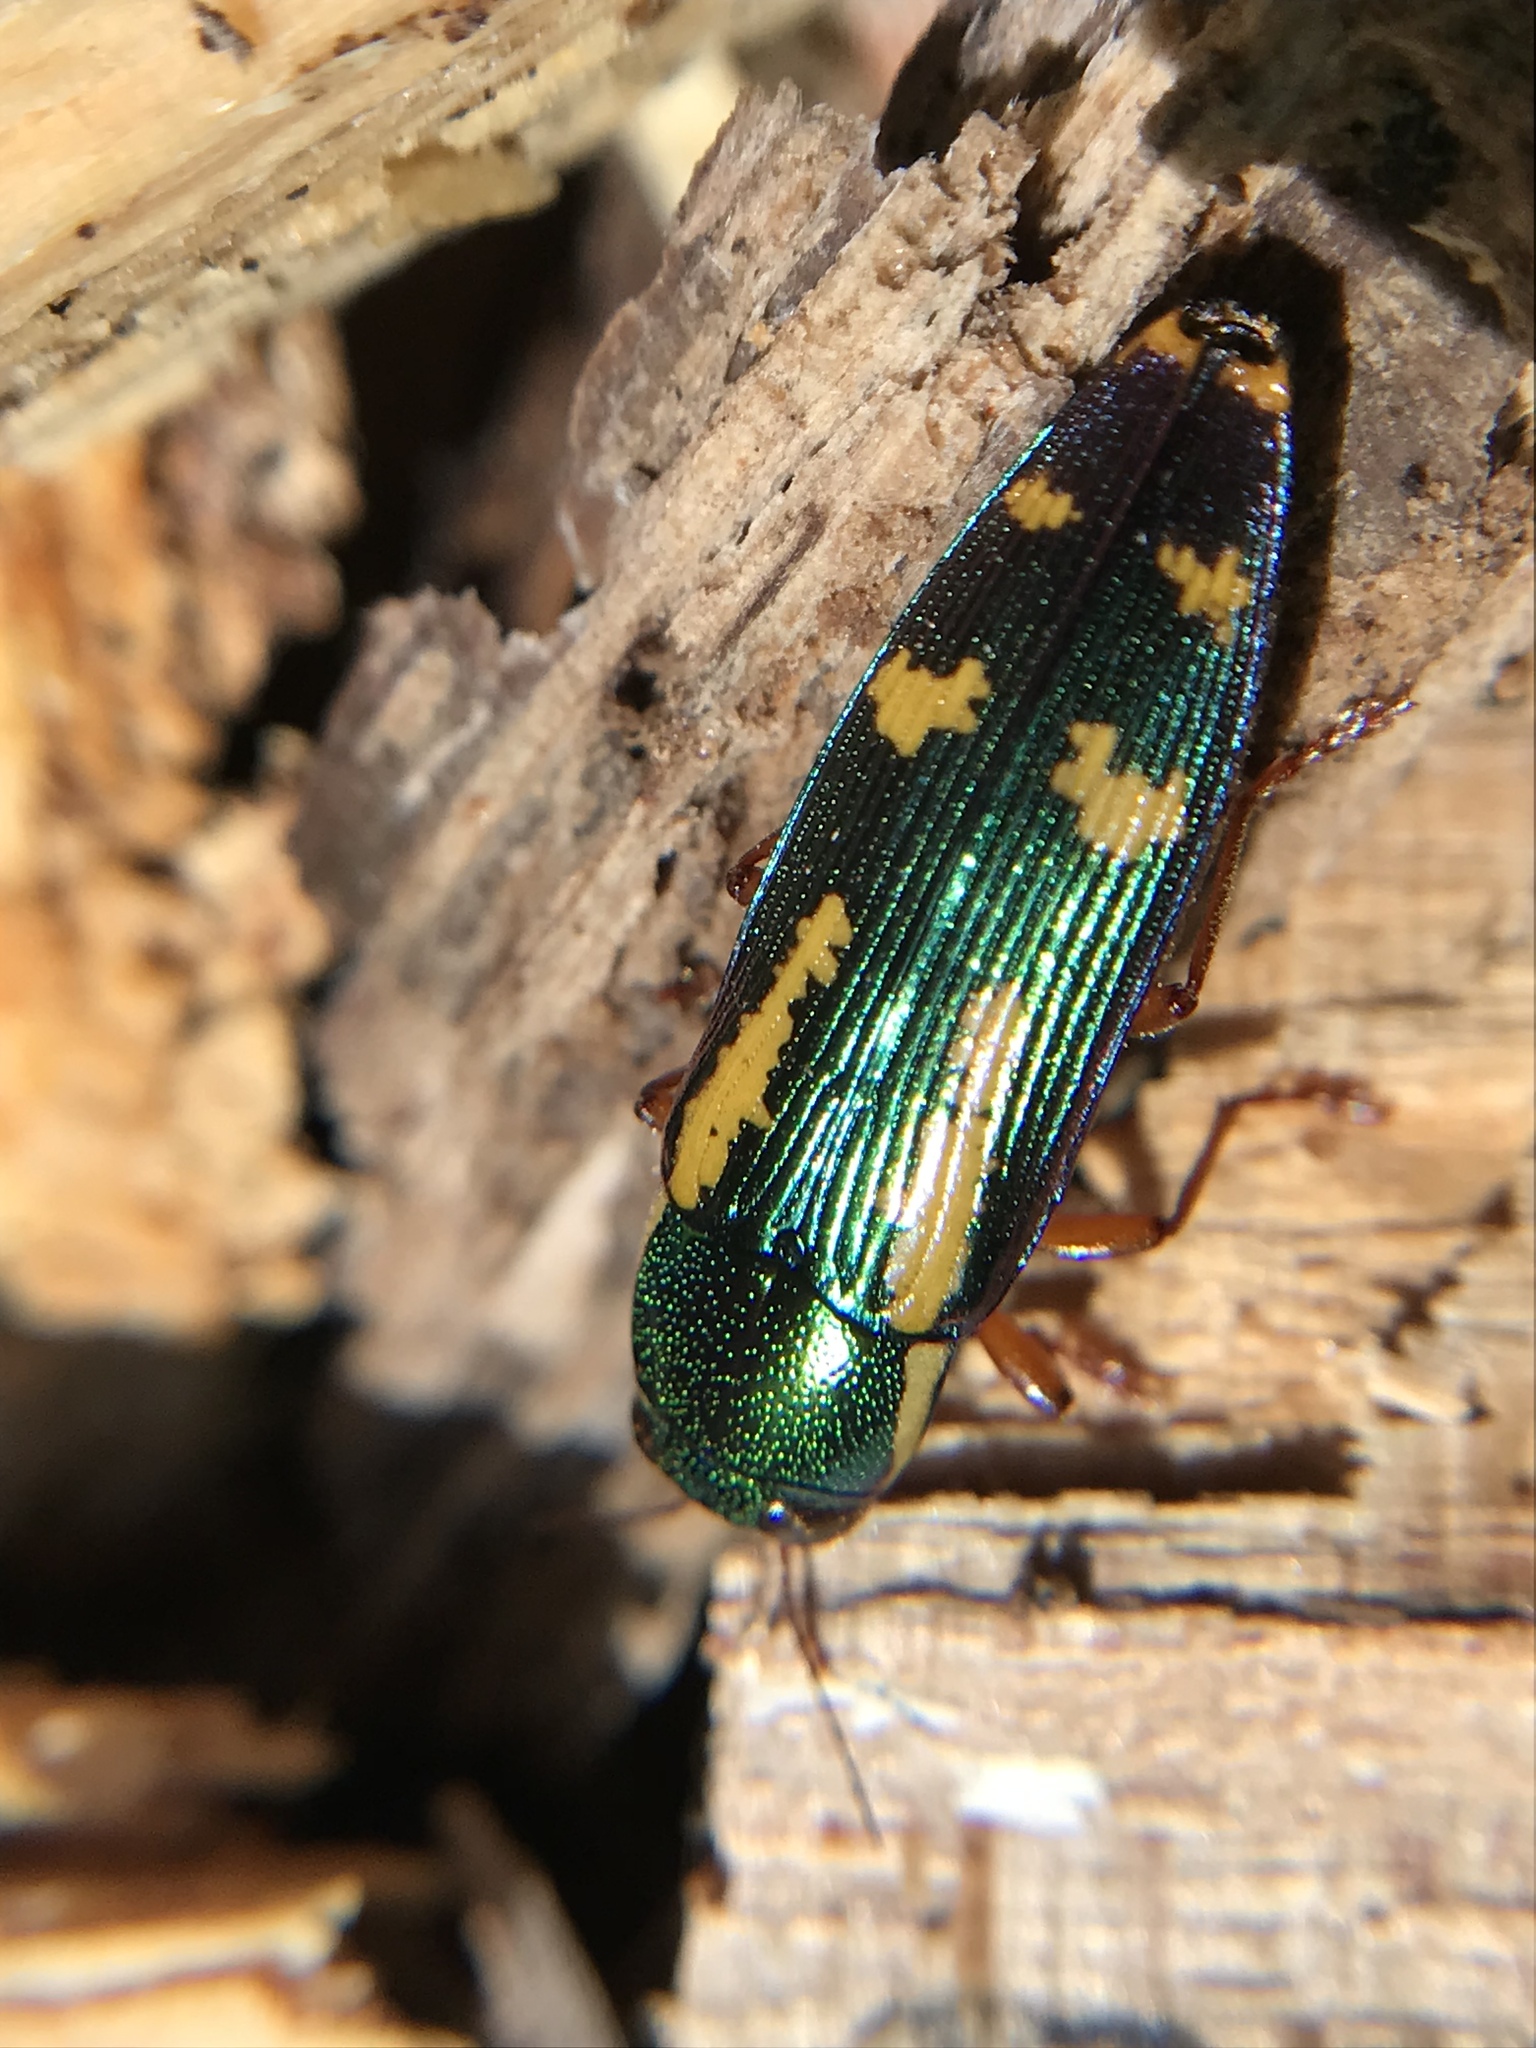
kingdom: Animalia
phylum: Arthropoda
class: Insecta
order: Coleoptera
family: Buprestidae
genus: Buprestis
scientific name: Buprestis rufipes
